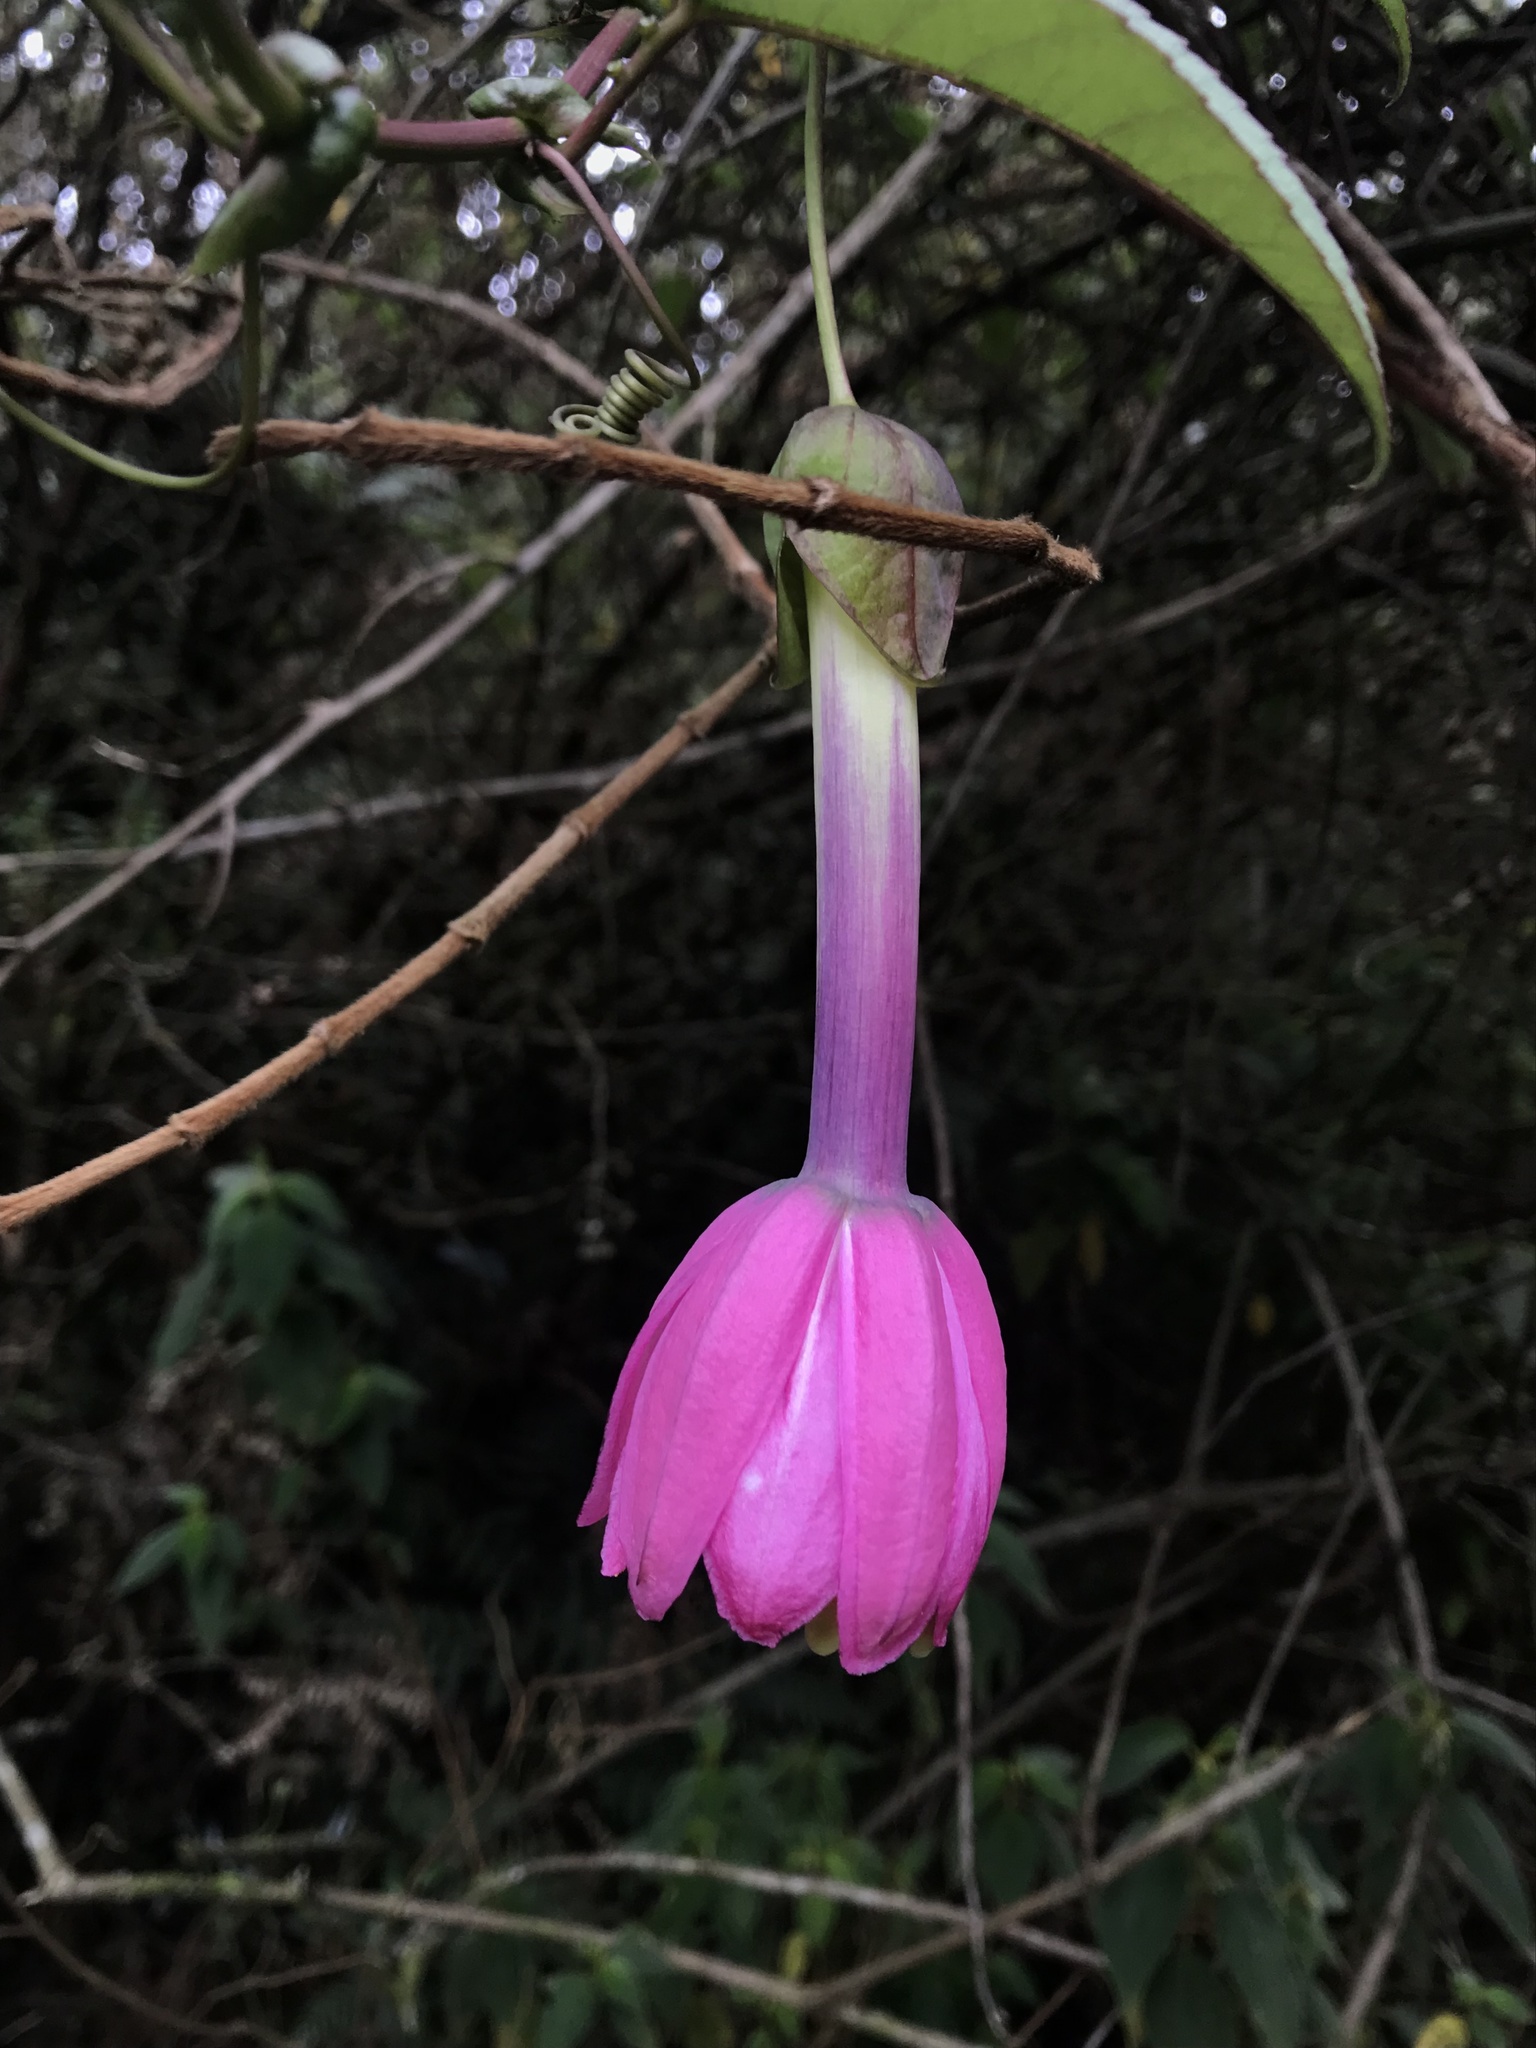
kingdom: Plantae
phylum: Tracheophyta
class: Magnoliopsida
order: Malpighiales
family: Passifloraceae
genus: Passiflora
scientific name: Passiflora cumbalensis
